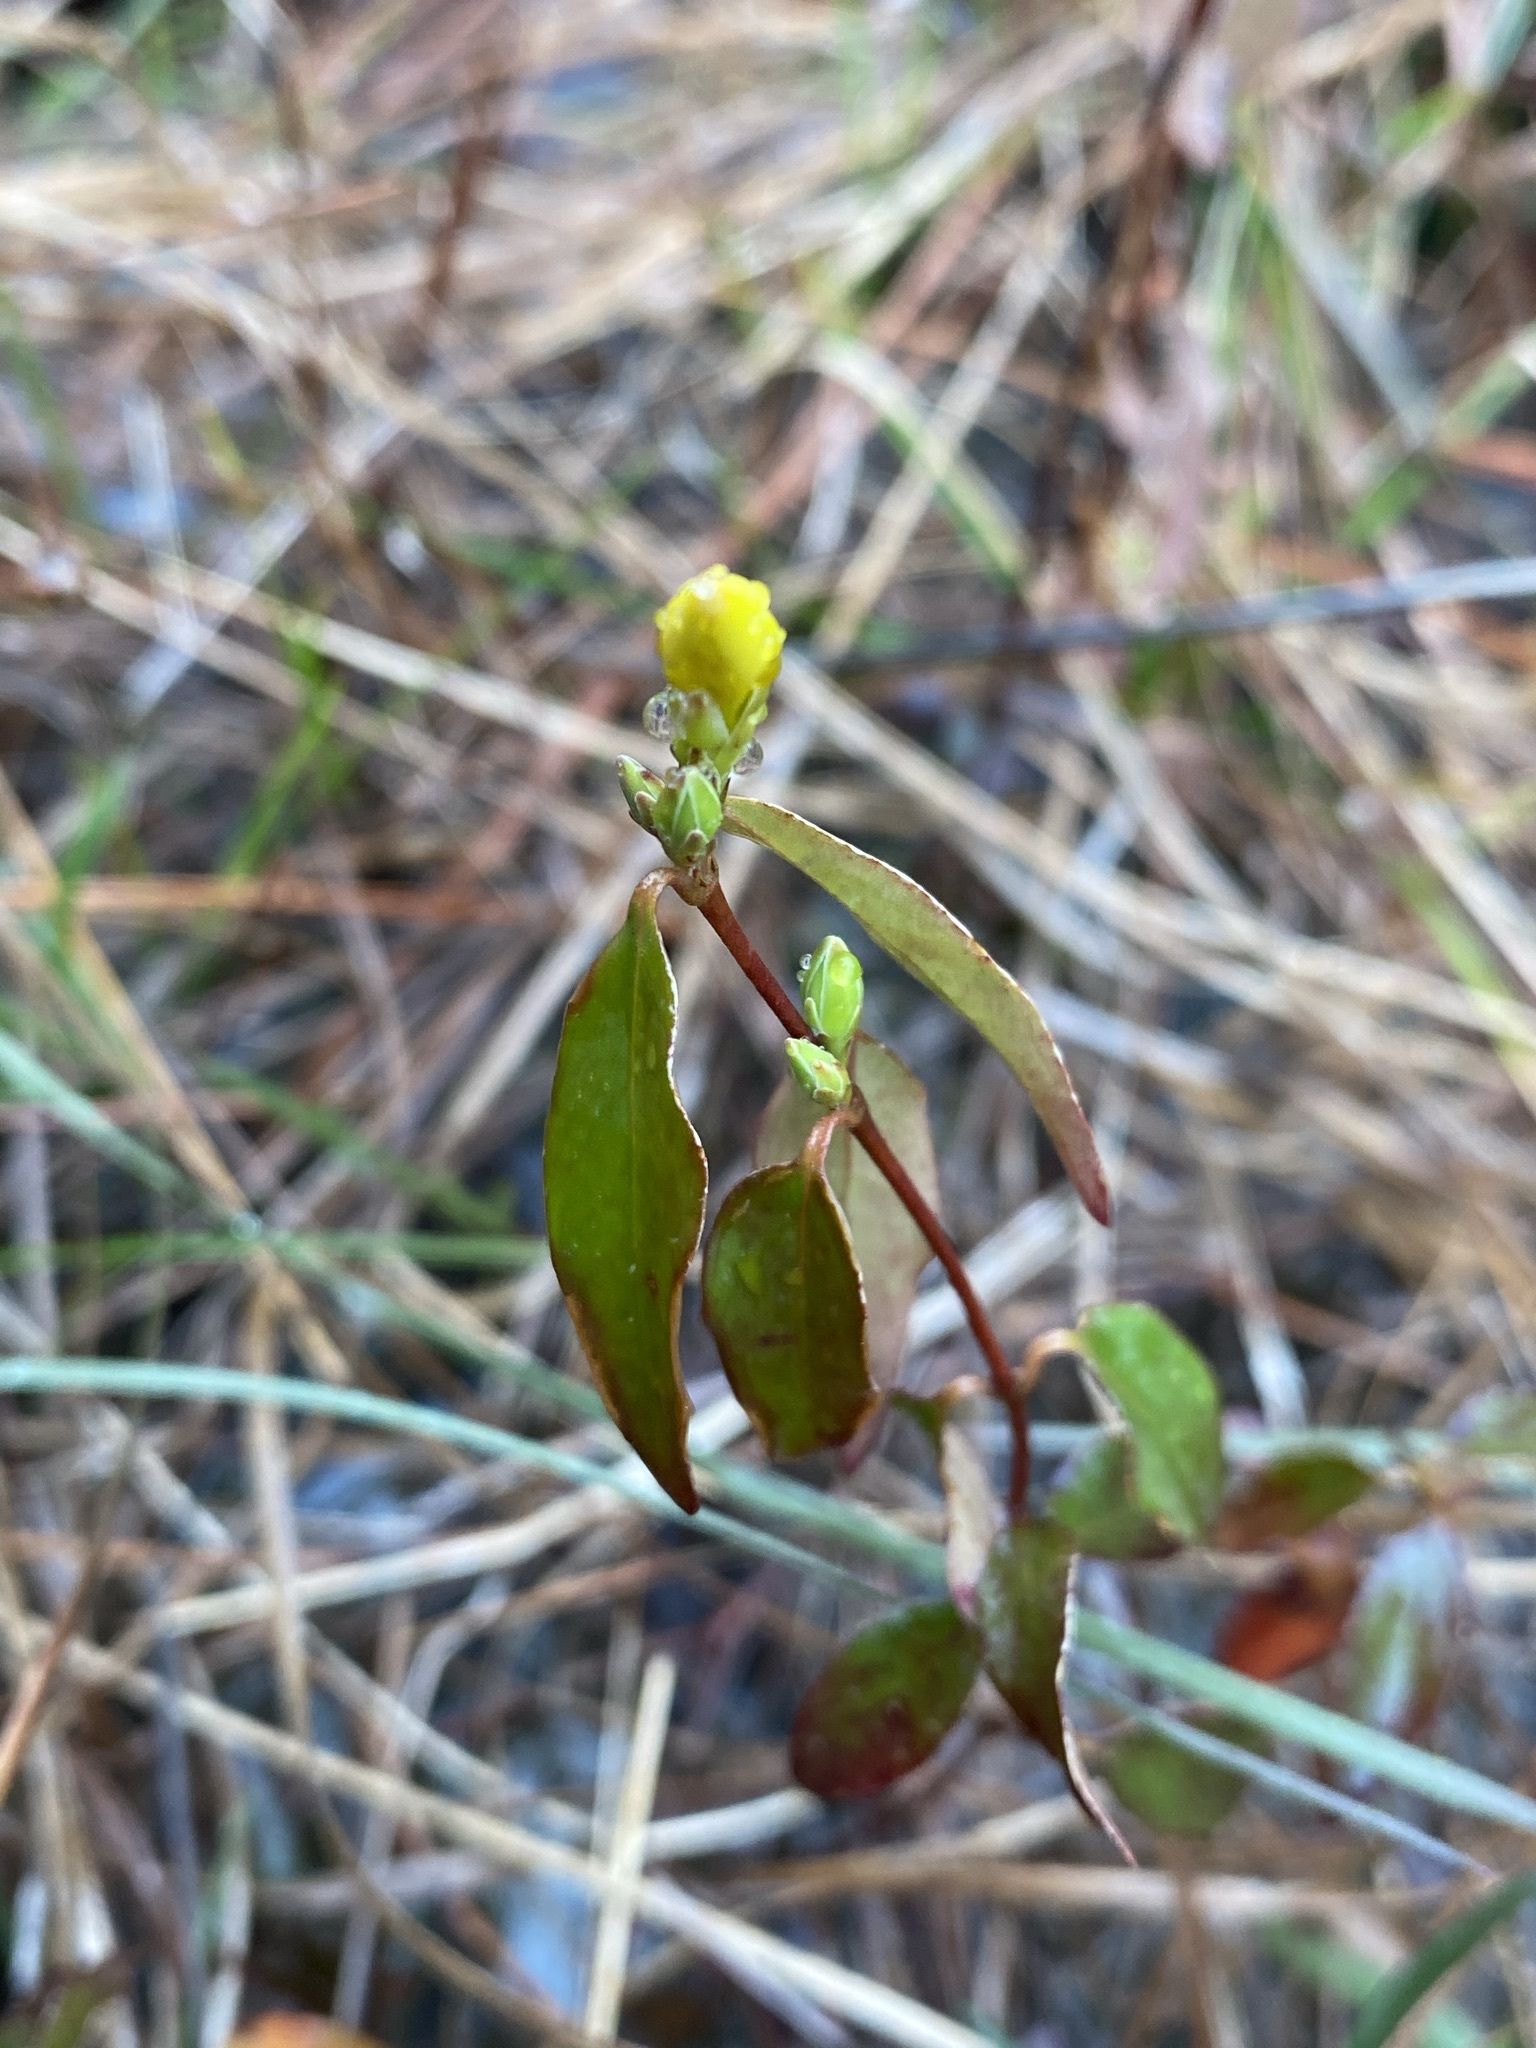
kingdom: Plantae
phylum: Tracheophyta
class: Magnoliopsida
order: Gentianales
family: Gelsemiaceae
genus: Gelsemium
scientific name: Gelsemium sempervirens
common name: Carolina-jasmine
